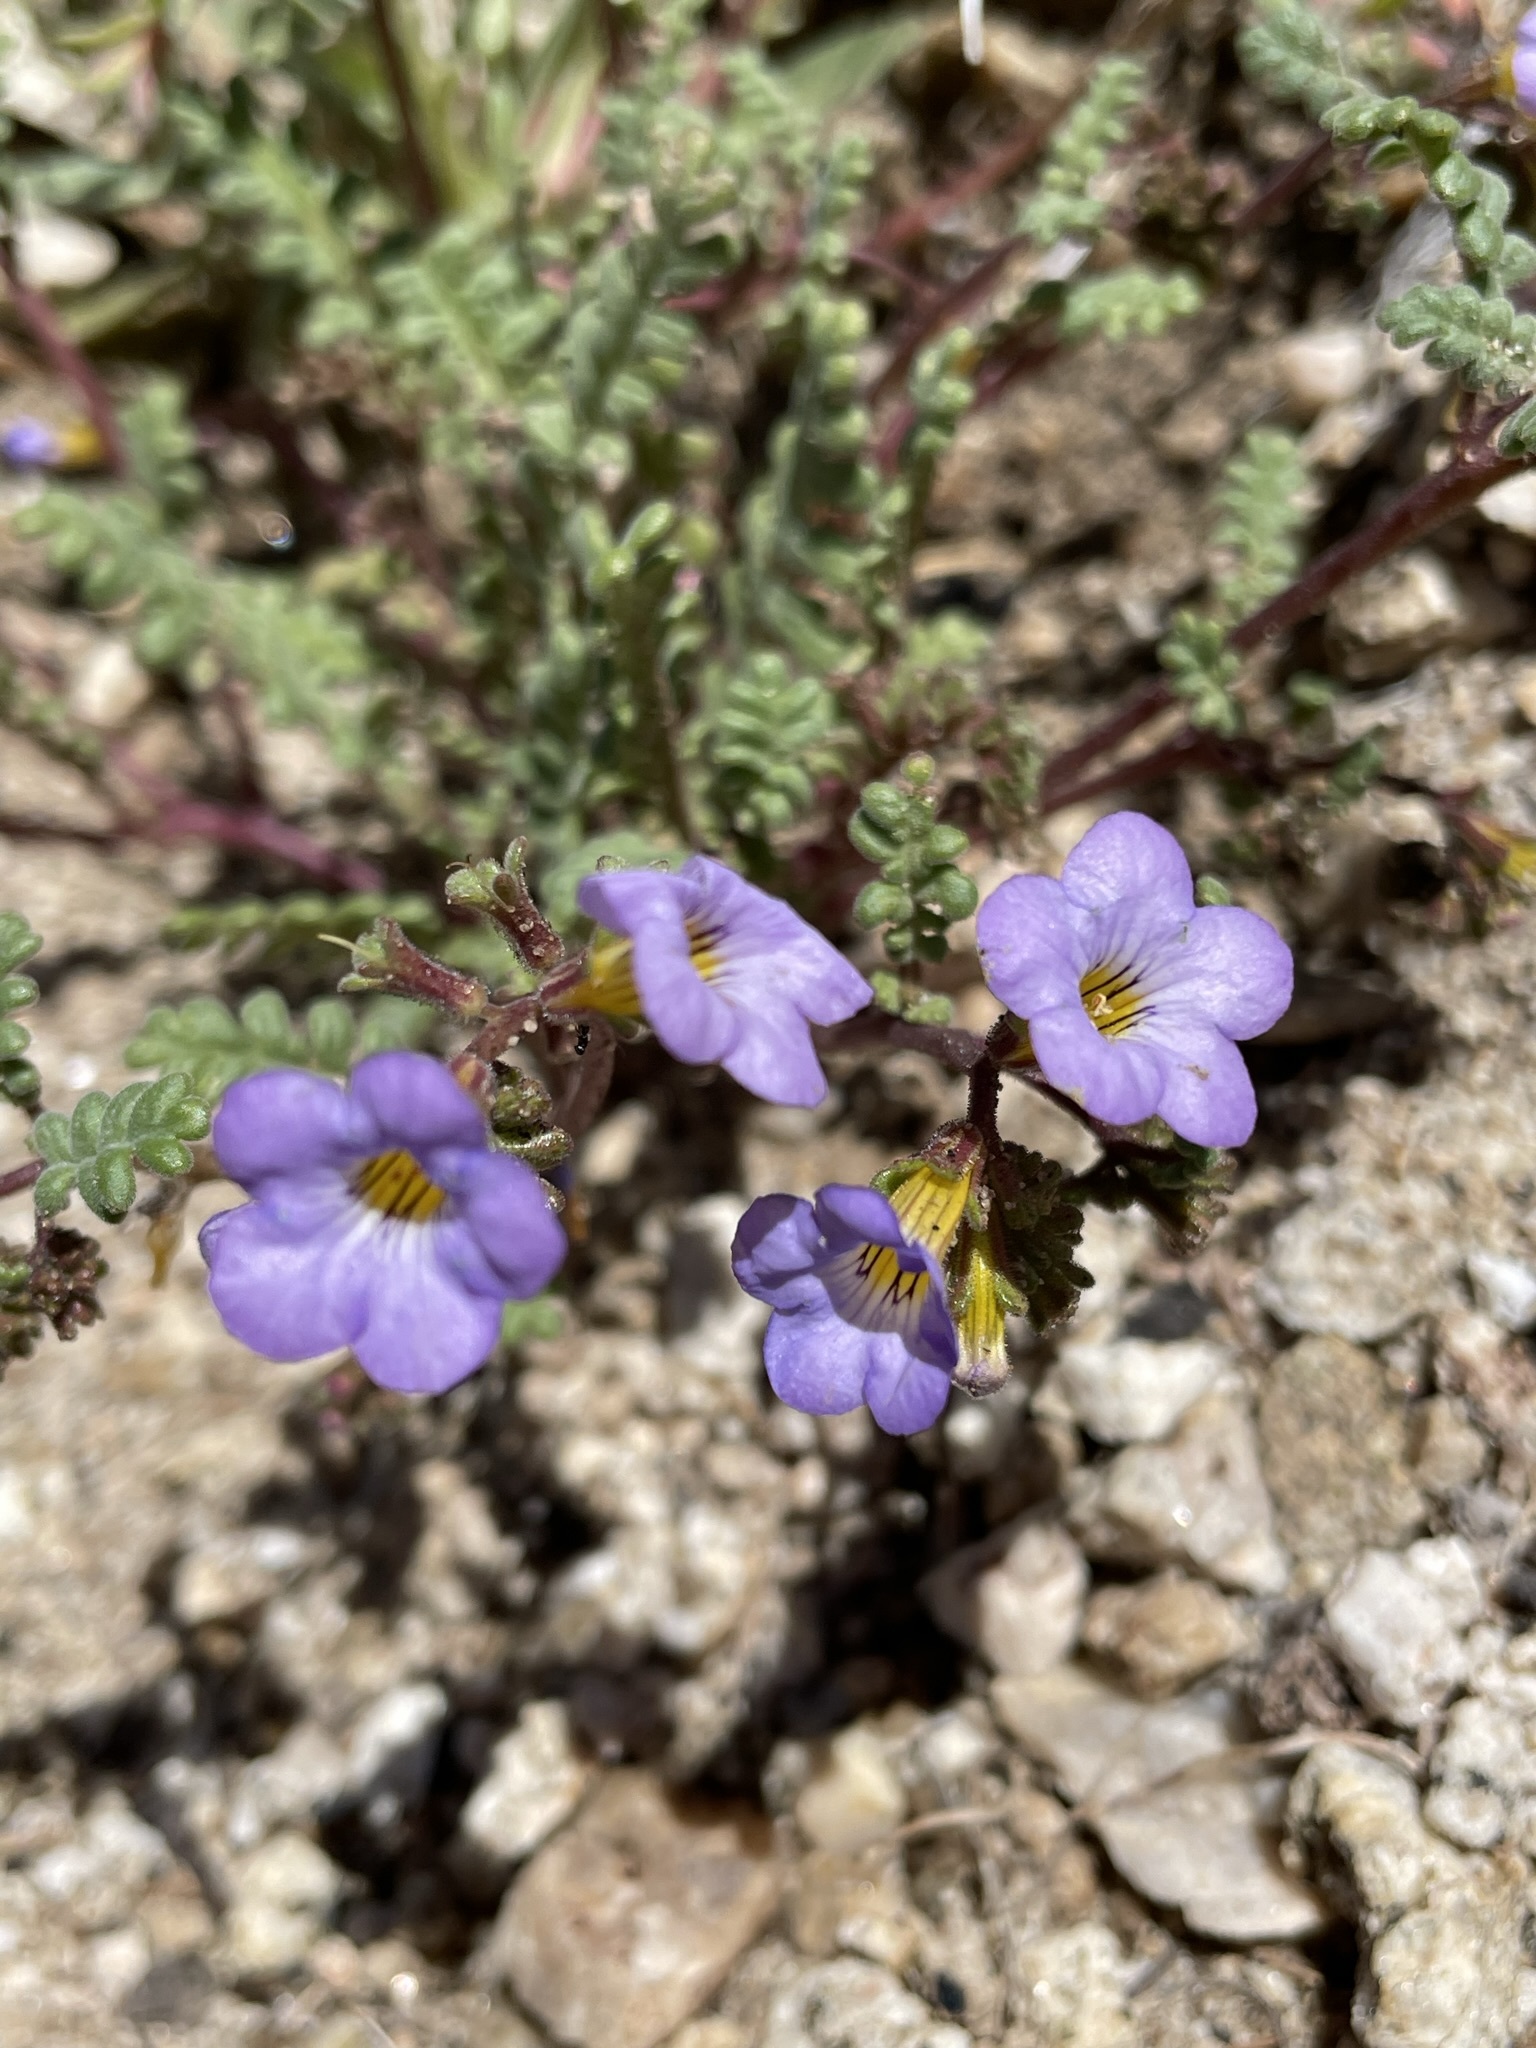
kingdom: Plantae
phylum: Tracheophyta
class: Magnoliopsida
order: Boraginales
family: Hydrophyllaceae
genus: Phacelia
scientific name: Phacelia fremontii
